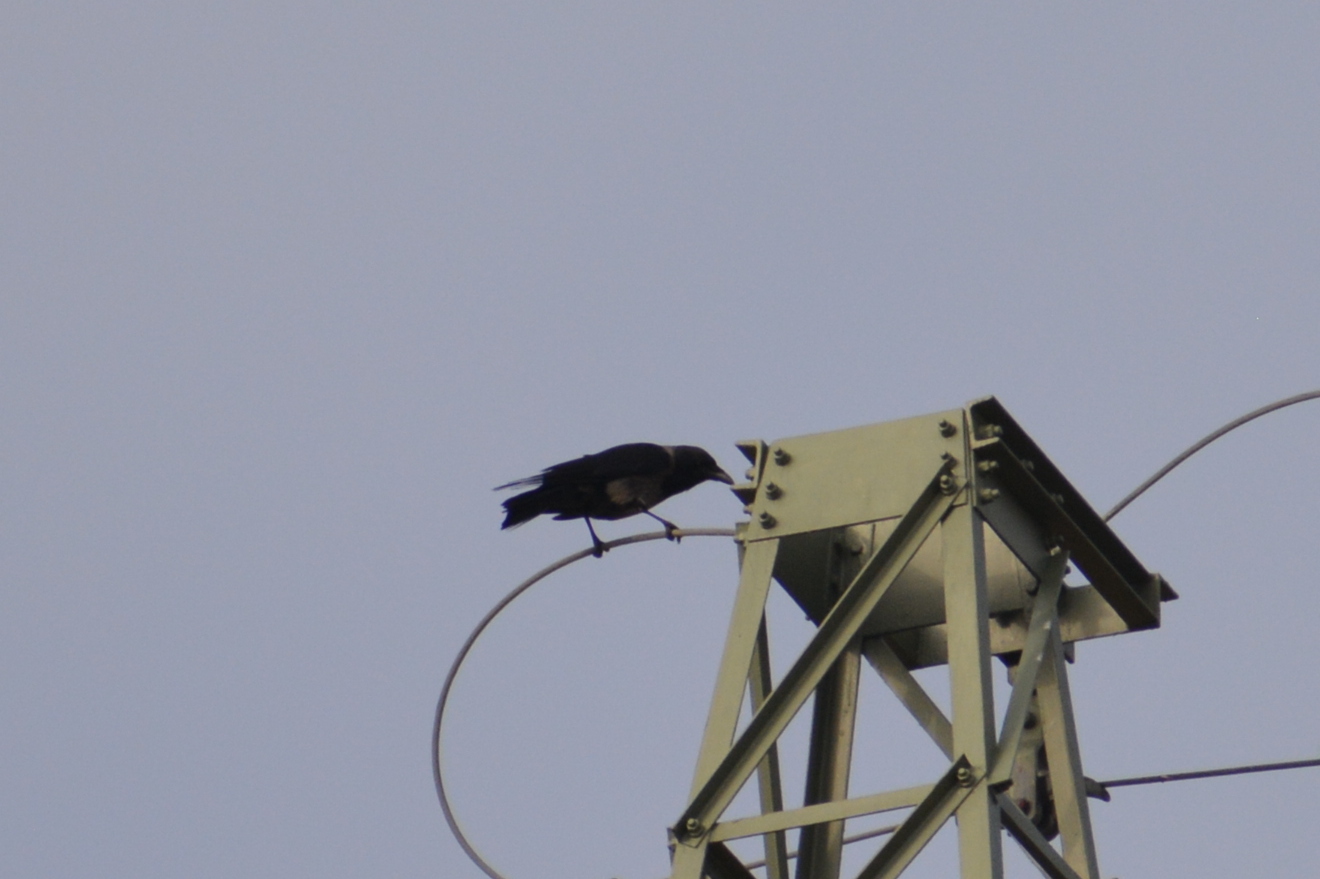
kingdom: Animalia
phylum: Chordata
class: Aves
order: Passeriformes
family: Corvidae
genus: Corvus
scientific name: Corvus cornix
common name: Hooded crow
